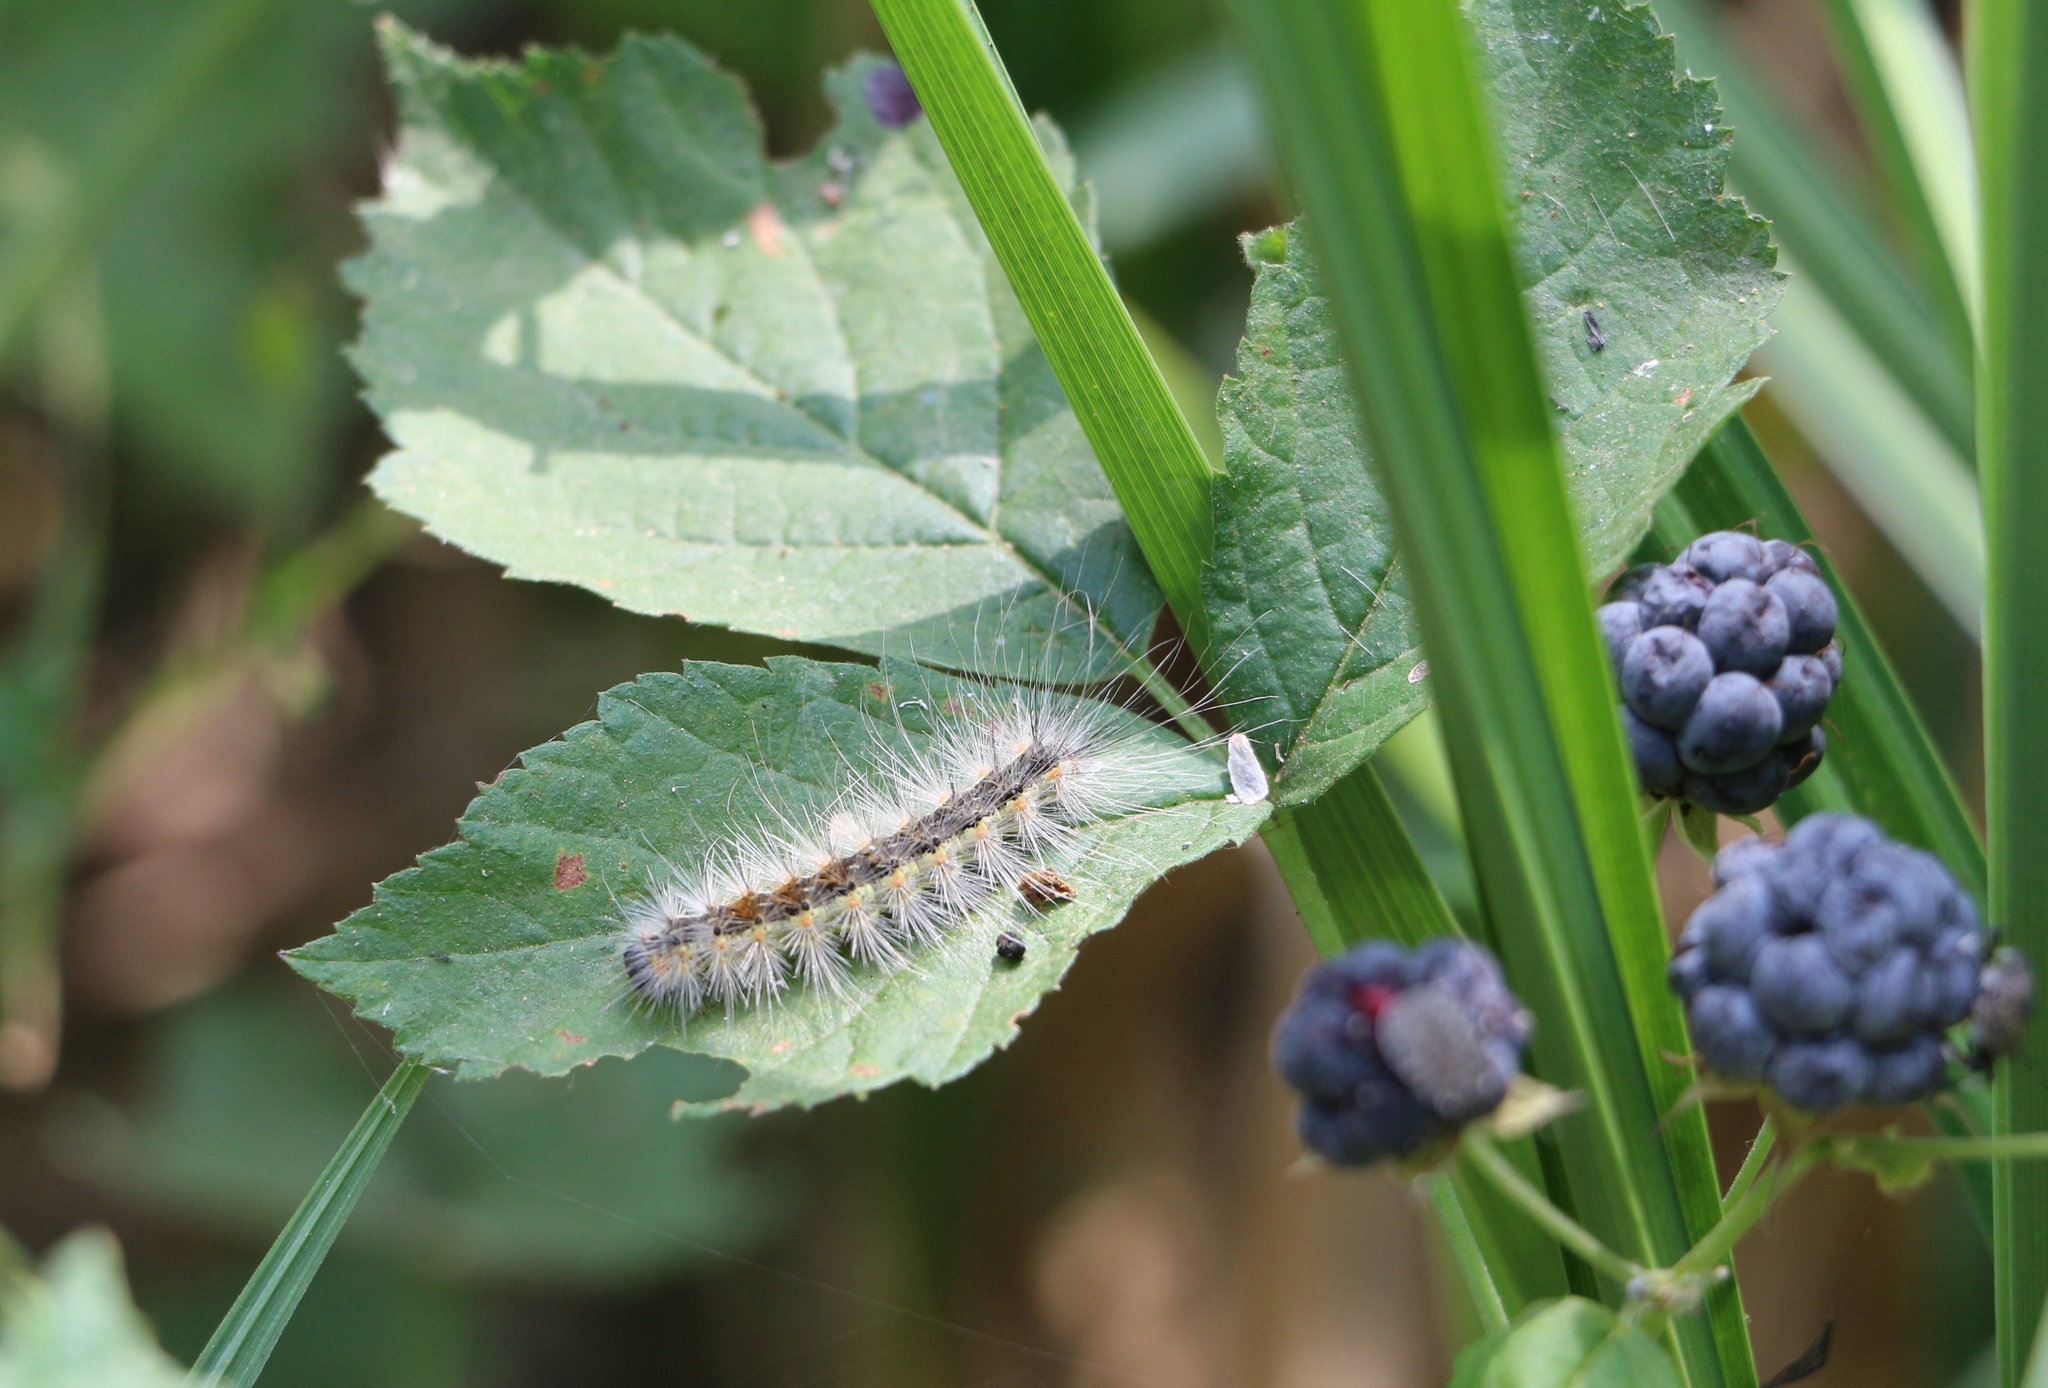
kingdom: Animalia
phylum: Arthropoda
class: Insecta
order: Lepidoptera
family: Erebidae
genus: Hyphantria
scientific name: Hyphantria cunea
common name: American white moth
